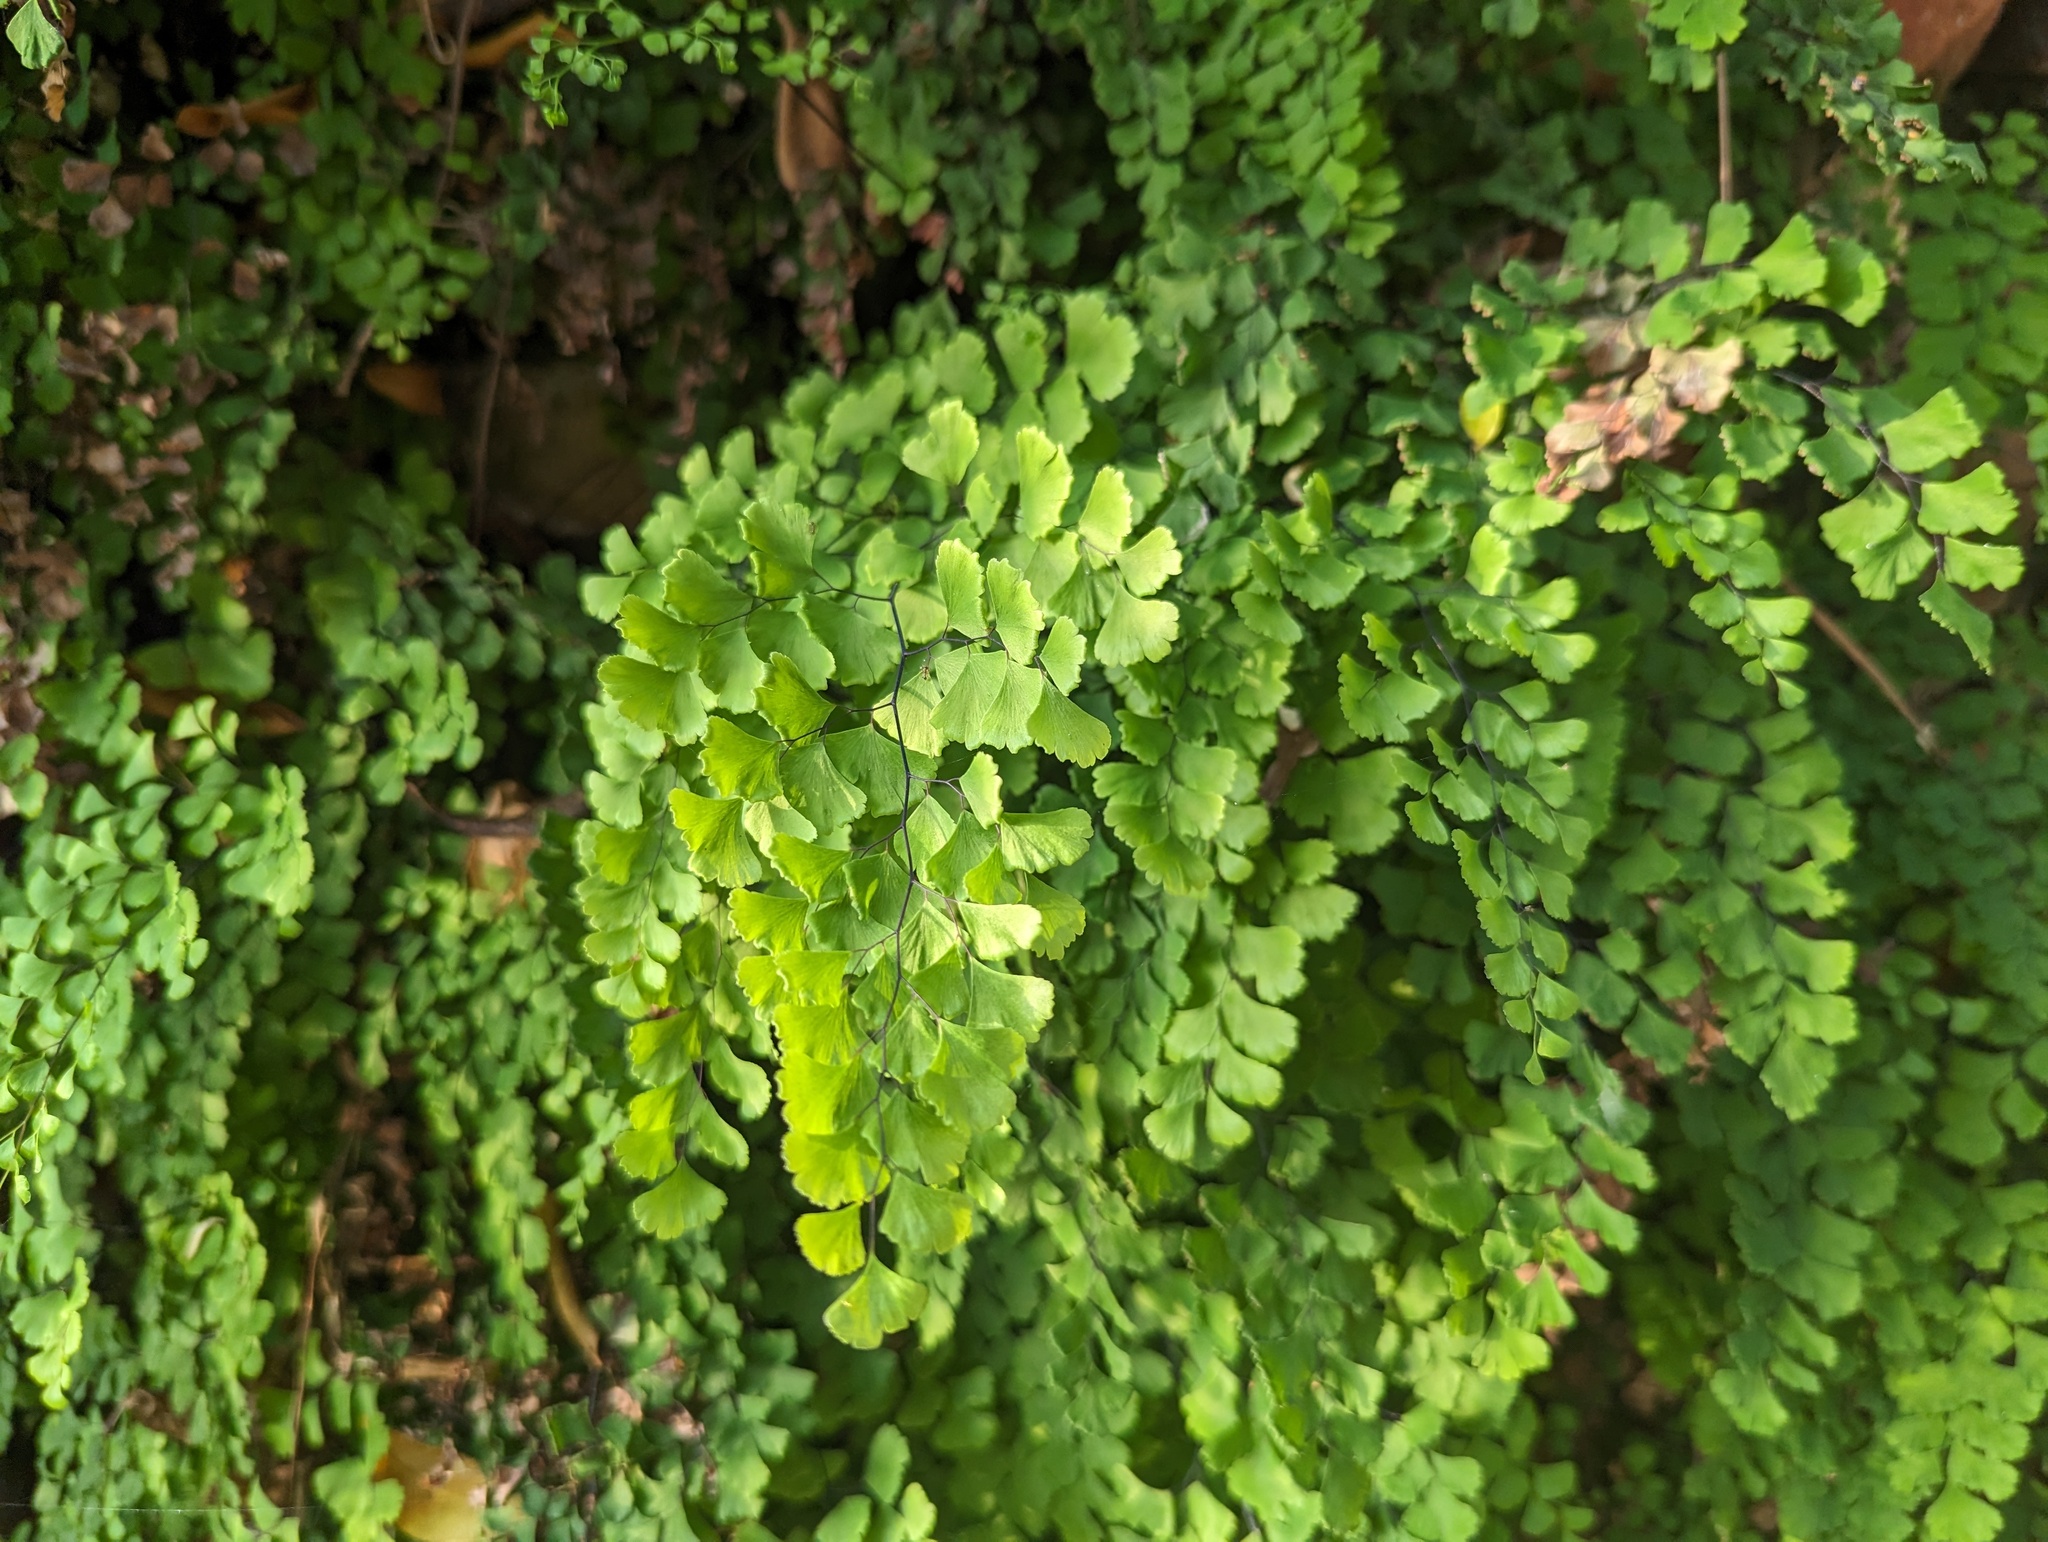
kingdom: Plantae
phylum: Tracheophyta
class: Polypodiopsida
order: Polypodiales
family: Pteridaceae
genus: Adiantum
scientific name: Adiantum capillus-veneris
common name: Maidenhair fern
